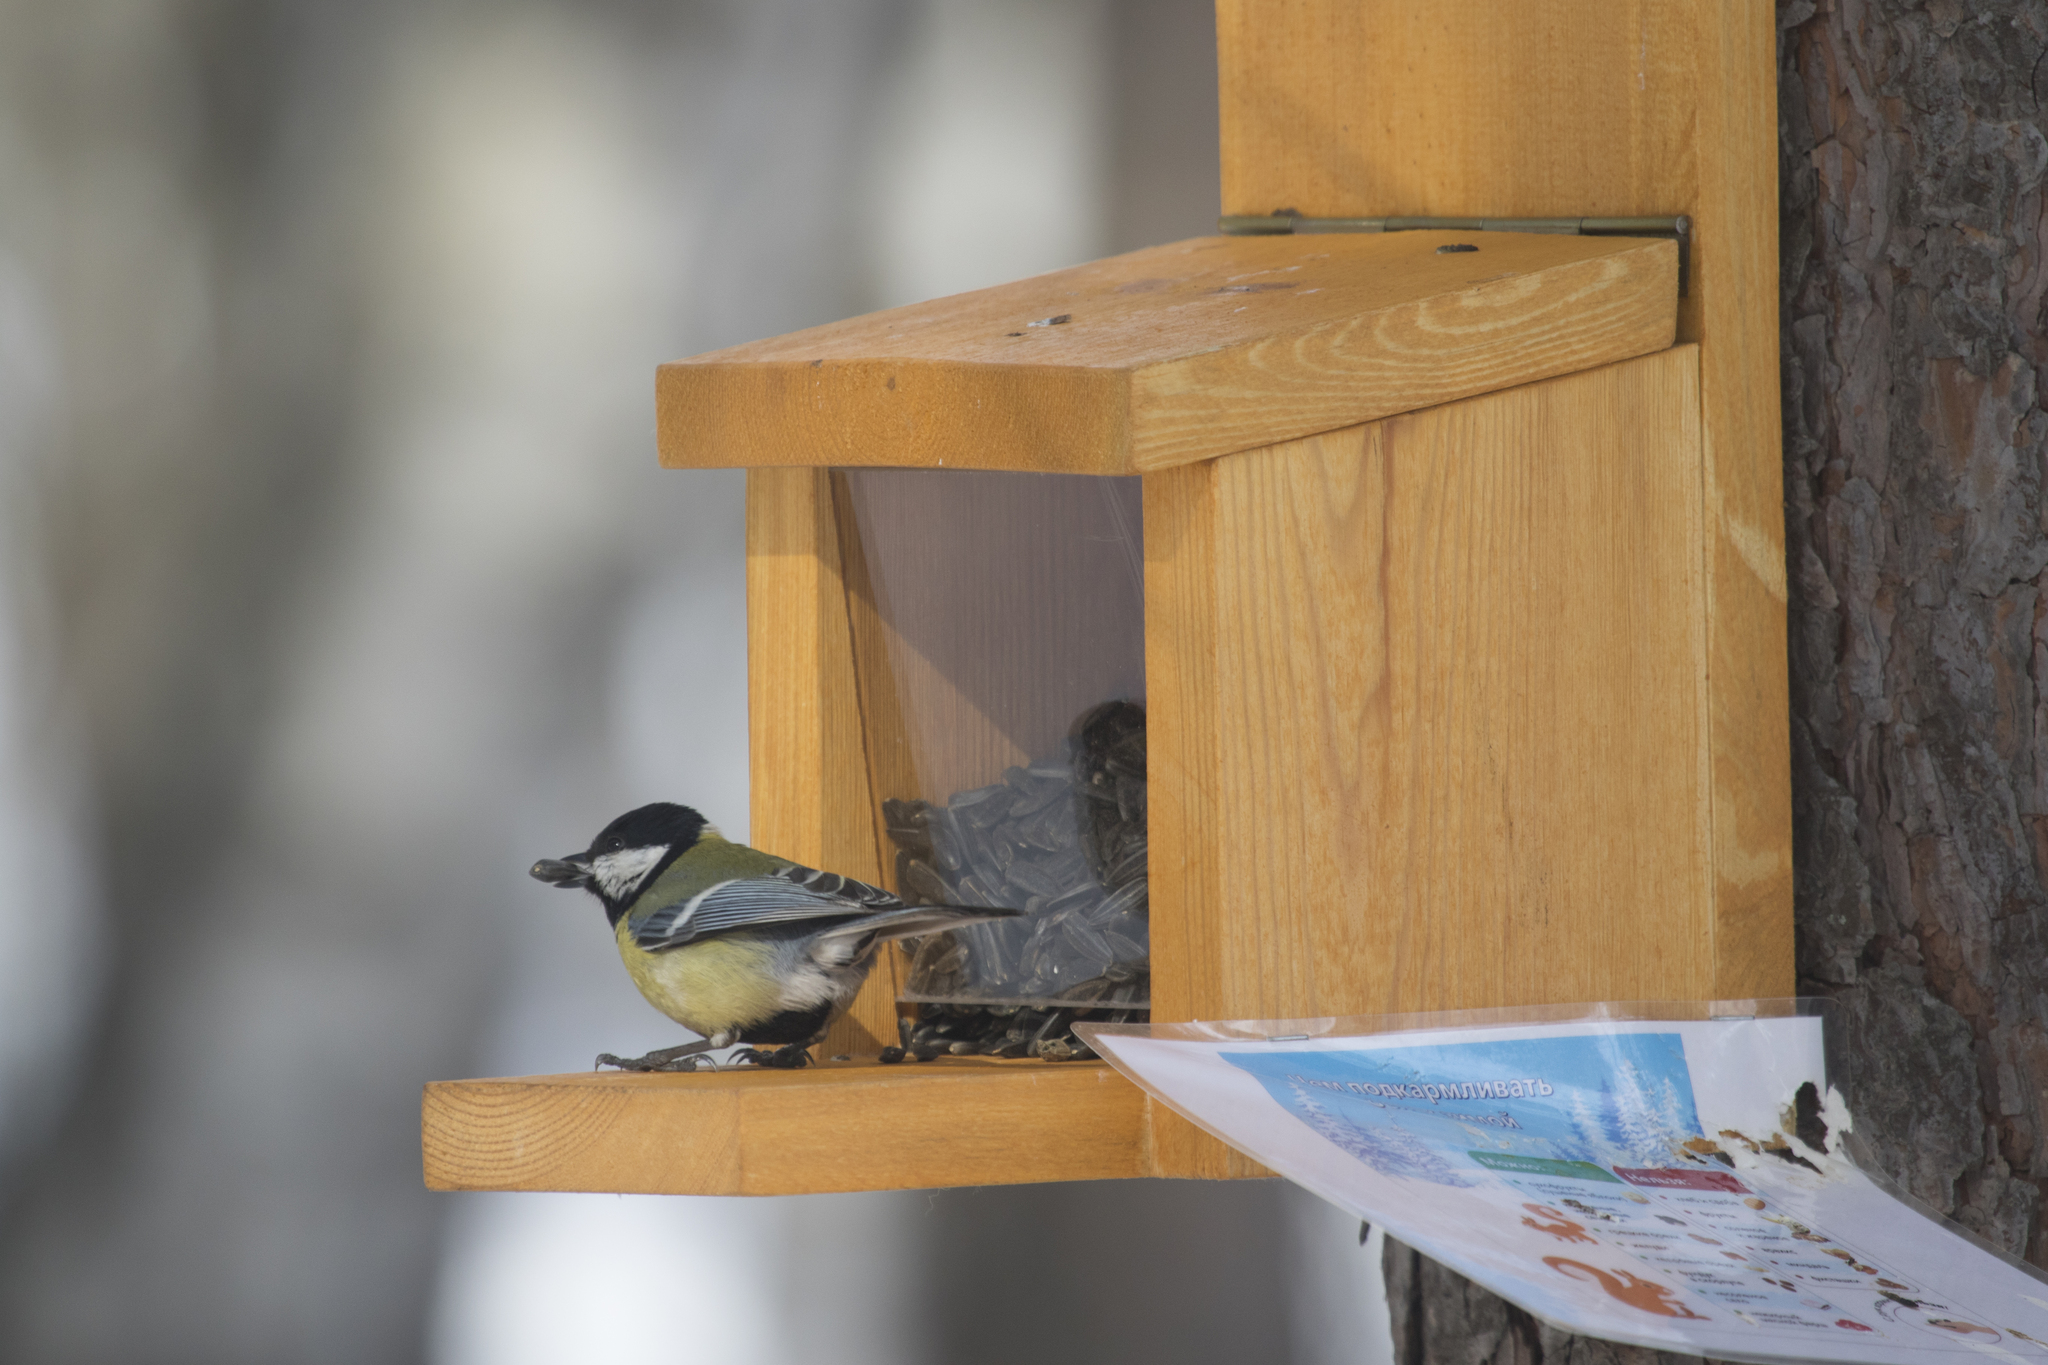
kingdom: Animalia
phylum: Chordata
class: Aves
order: Passeriformes
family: Paridae
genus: Parus
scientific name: Parus major
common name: Great tit
